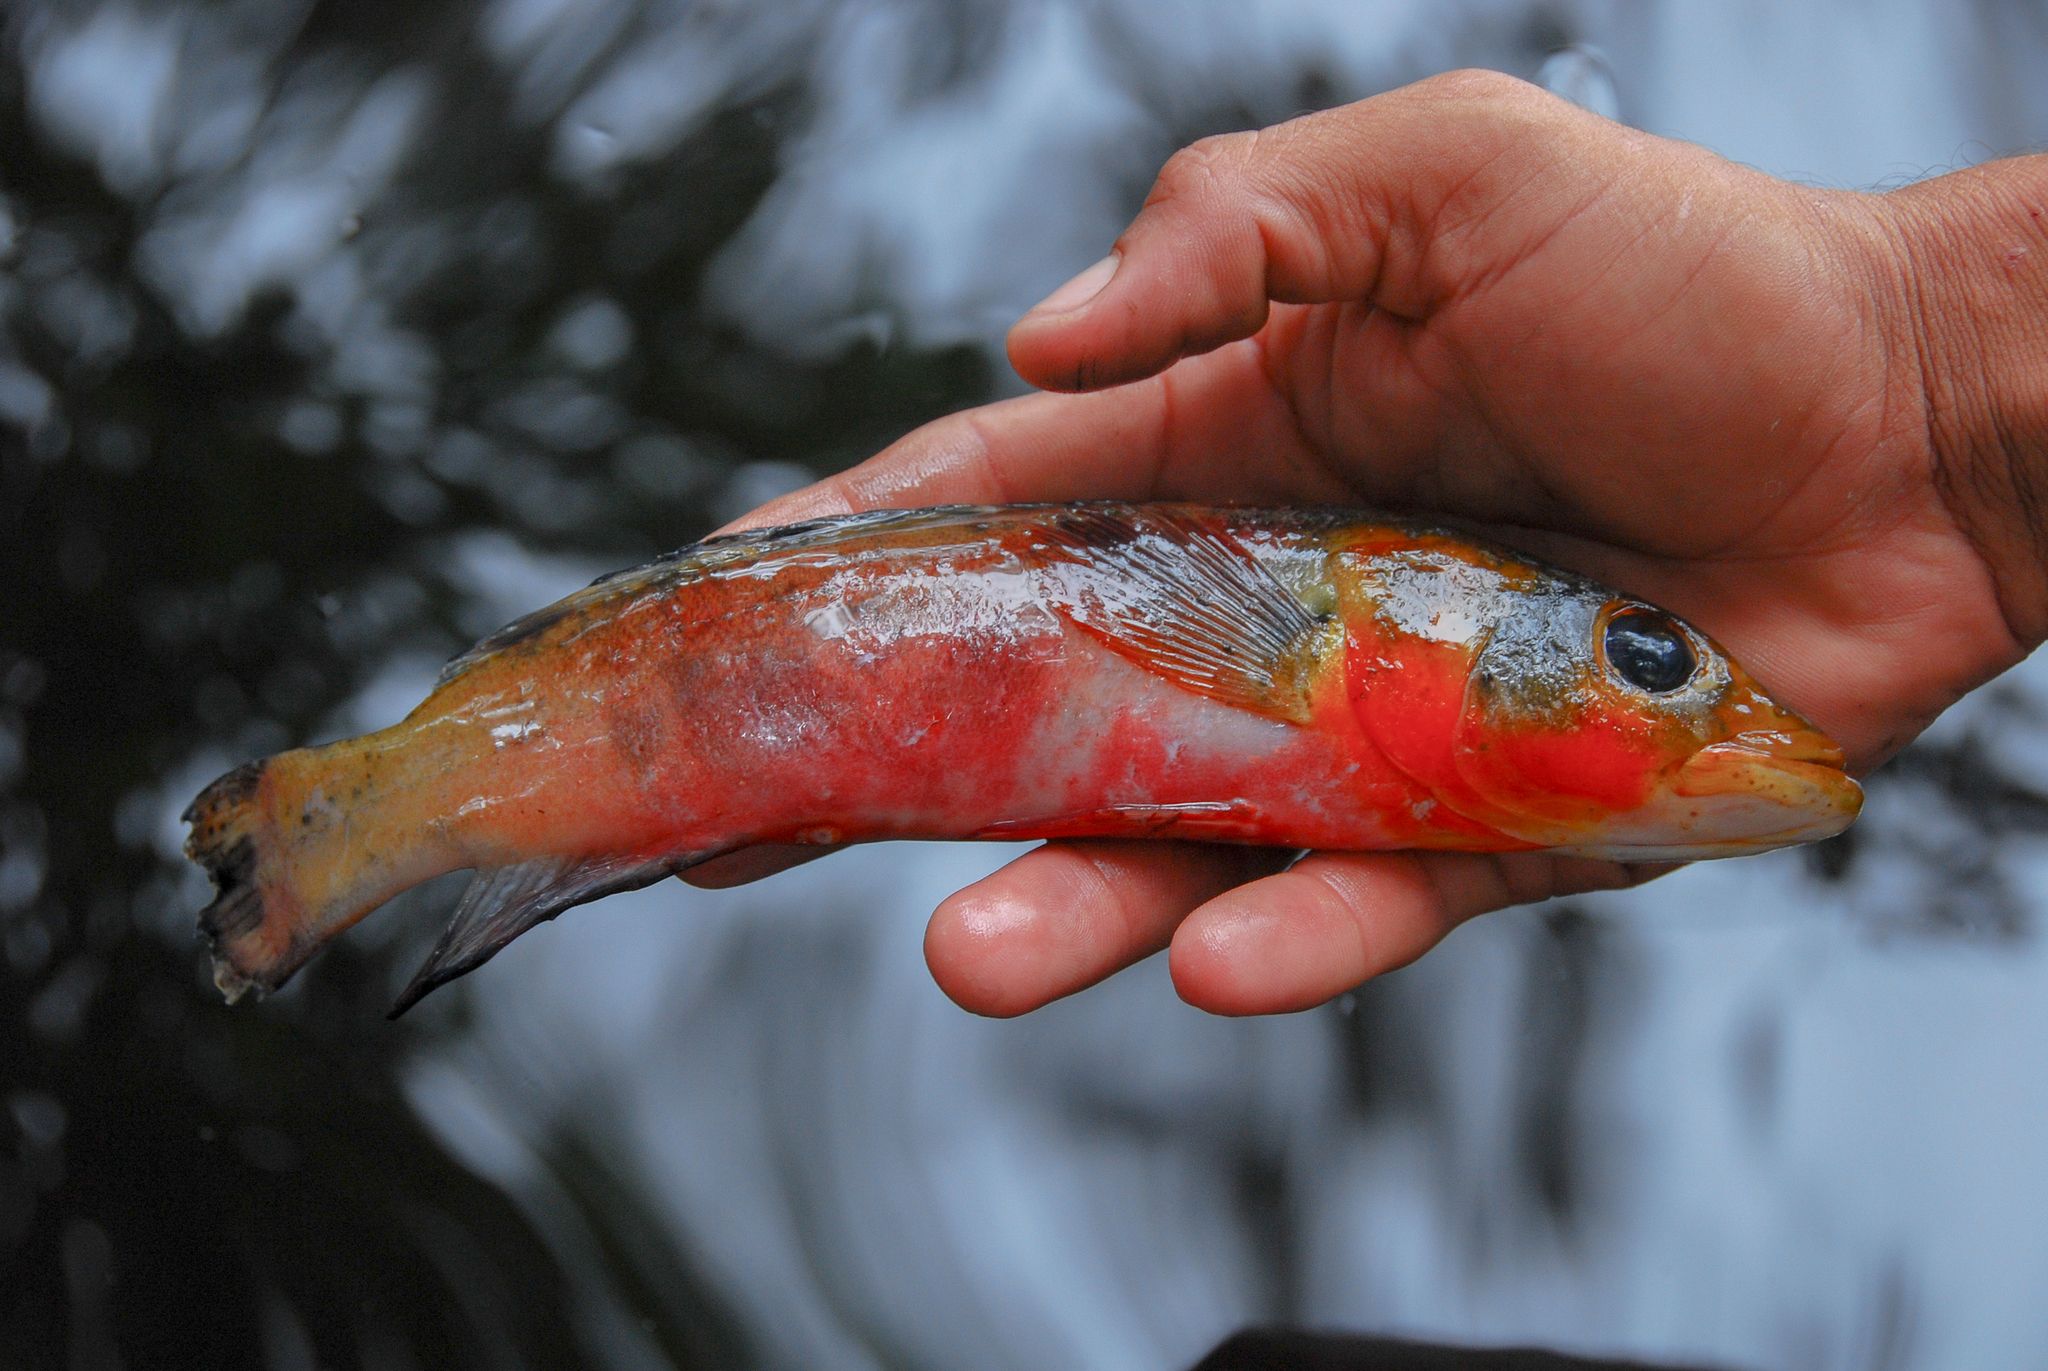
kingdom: Animalia
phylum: Chordata
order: Perciformes
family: Cichlidae
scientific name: Cichlidae
